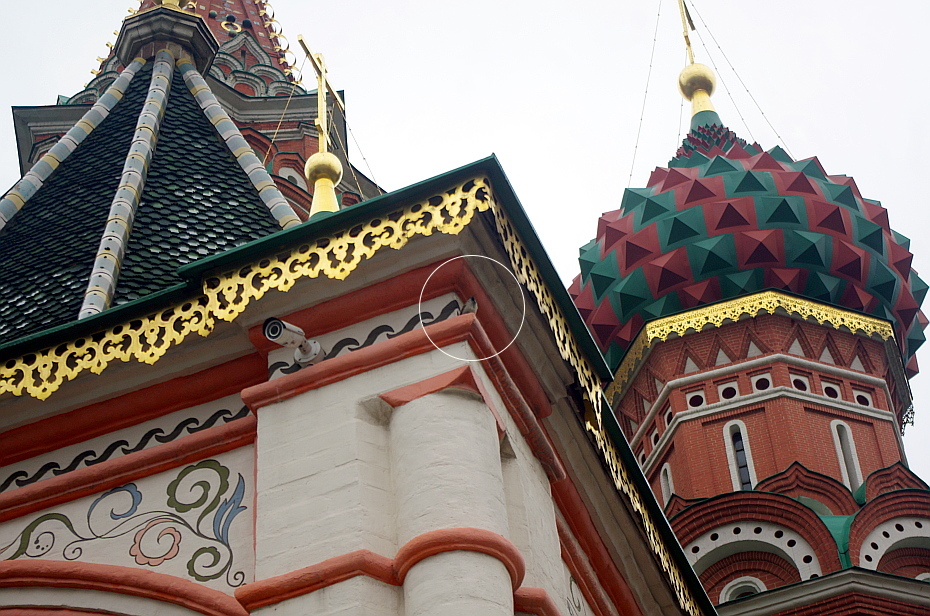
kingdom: Animalia
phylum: Chordata
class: Aves
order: Passeriformes
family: Passeridae
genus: Passer
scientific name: Passer domesticus
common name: House sparrow
